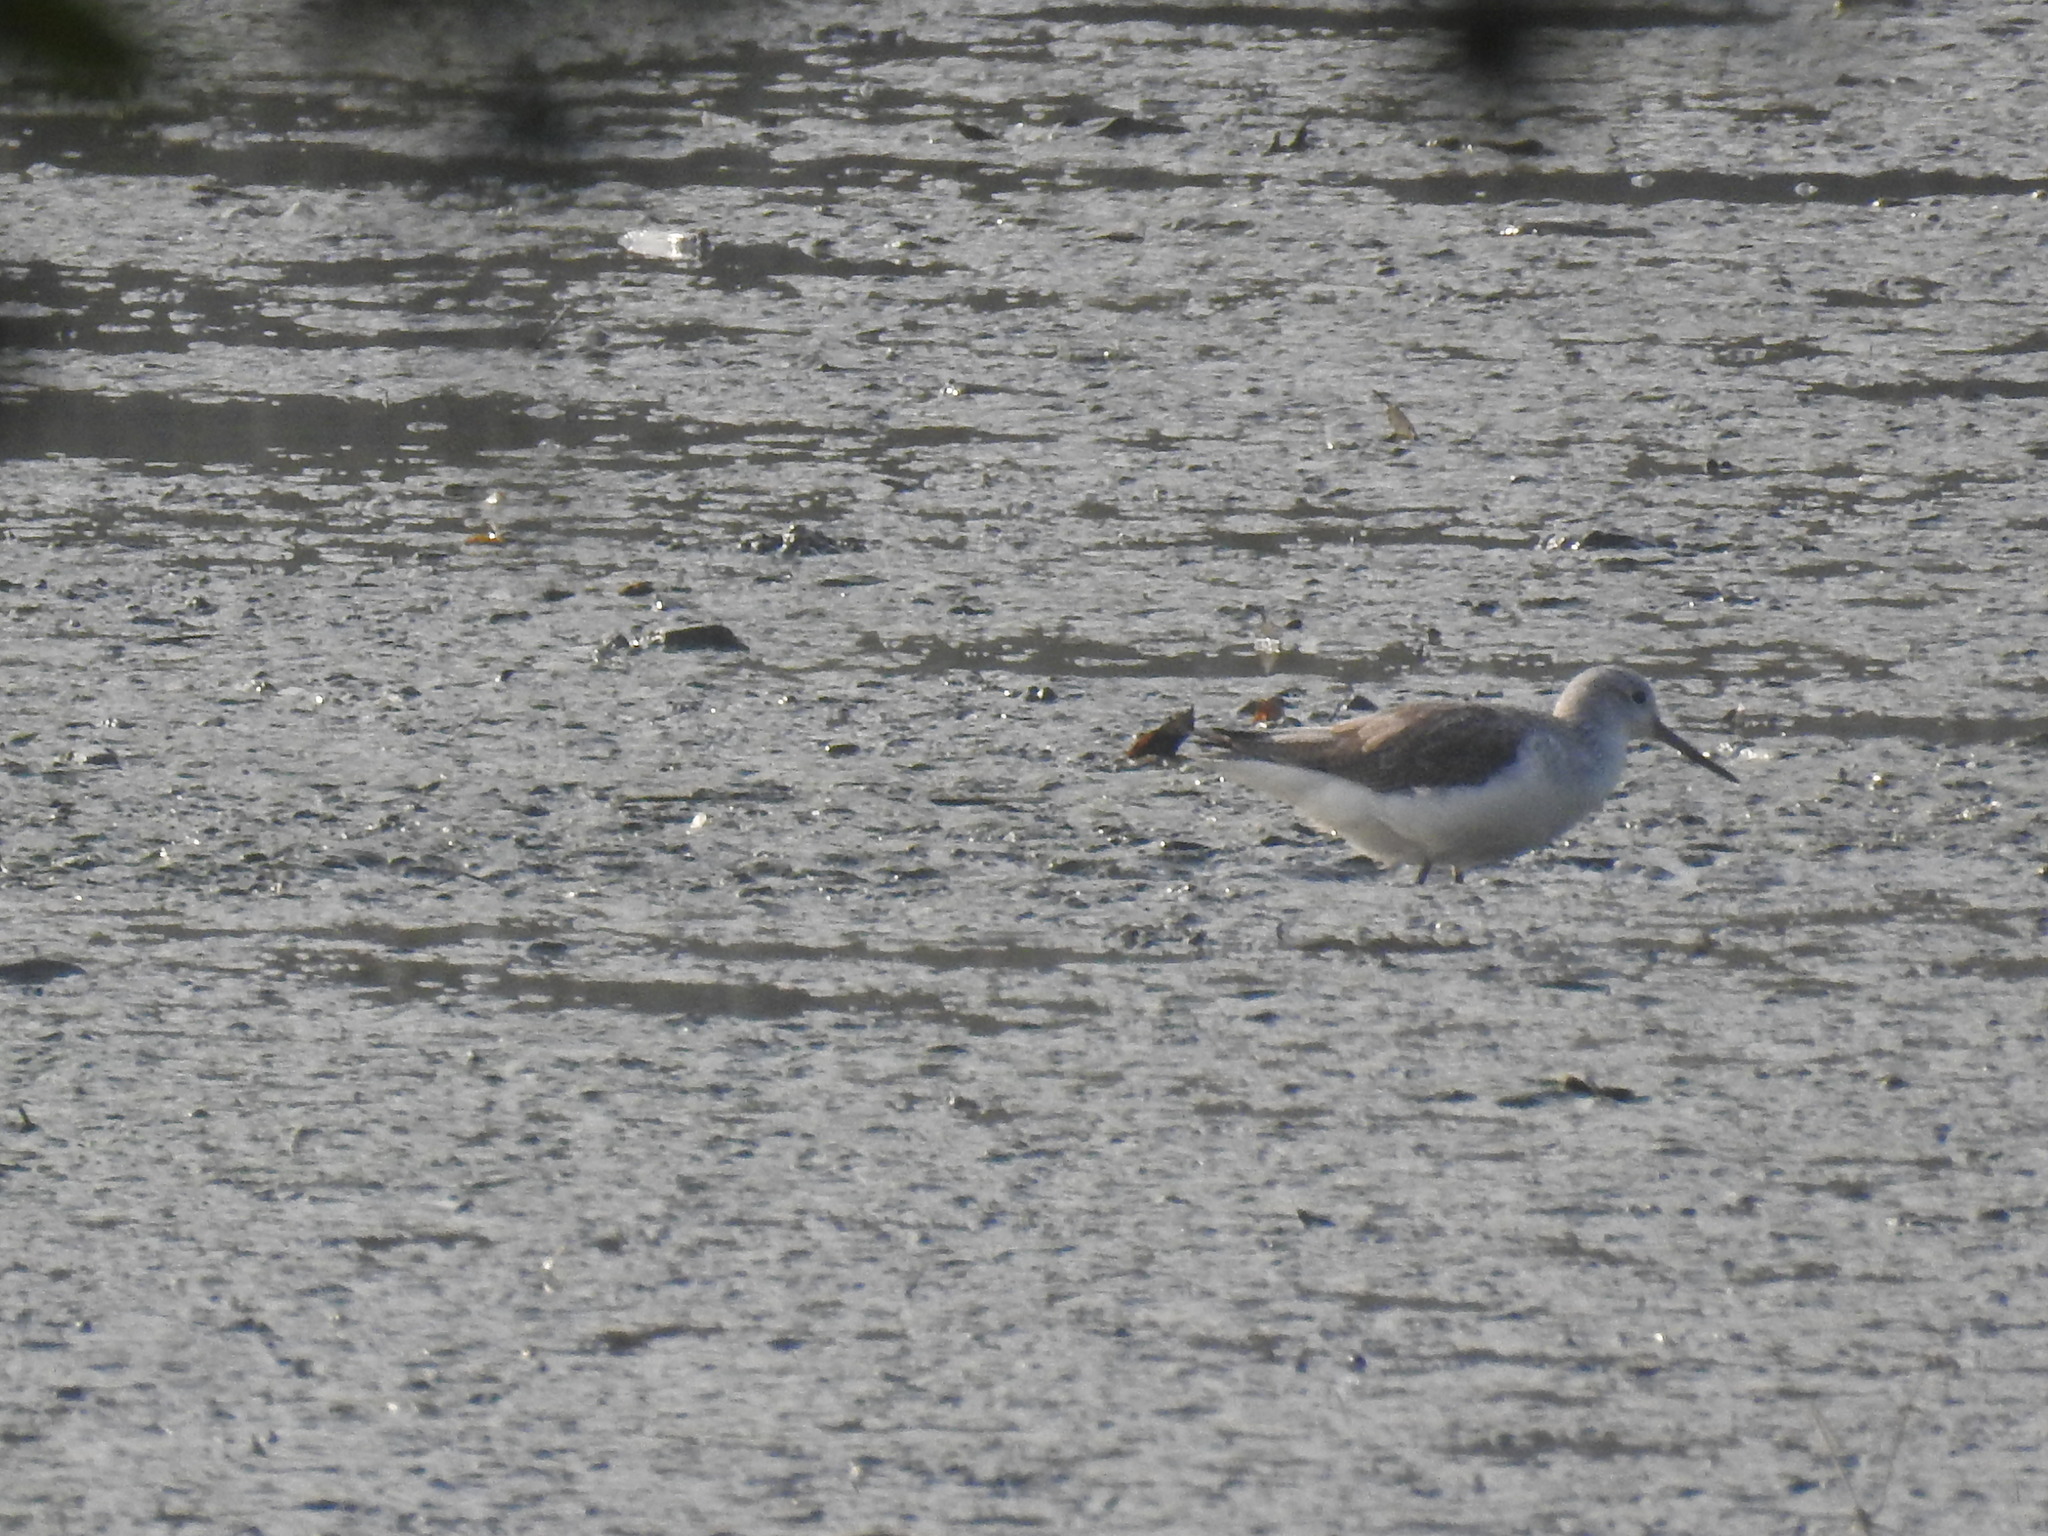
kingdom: Animalia
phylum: Chordata
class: Aves
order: Charadriiformes
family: Scolopacidae
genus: Tringa
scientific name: Tringa nebularia
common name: Common greenshank
